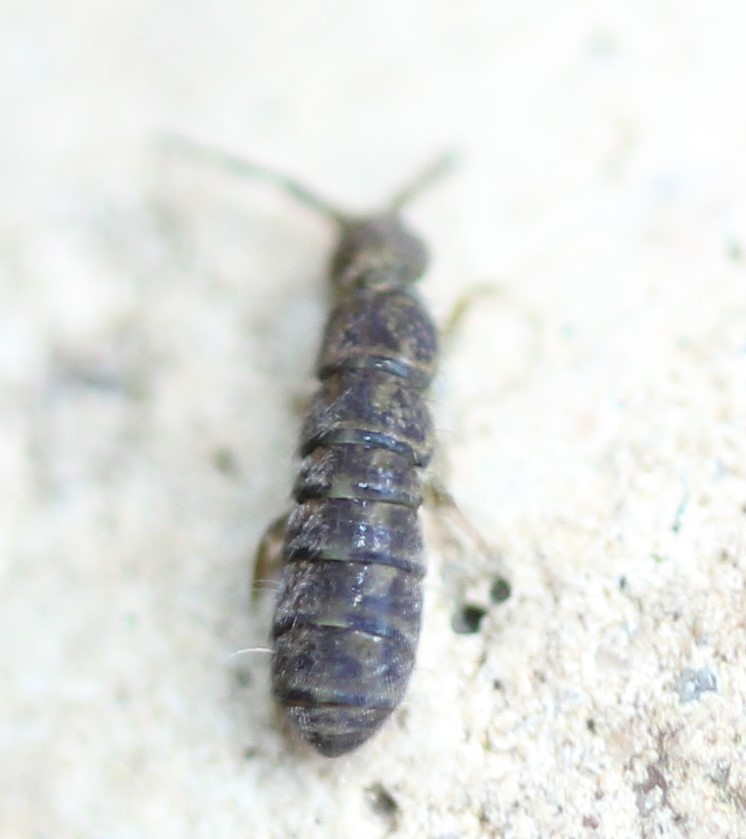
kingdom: Animalia
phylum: Arthropoda
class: Collembola
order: Entomobryomorpha
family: Isotomidae
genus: Isotoma
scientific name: Isotoma delta
